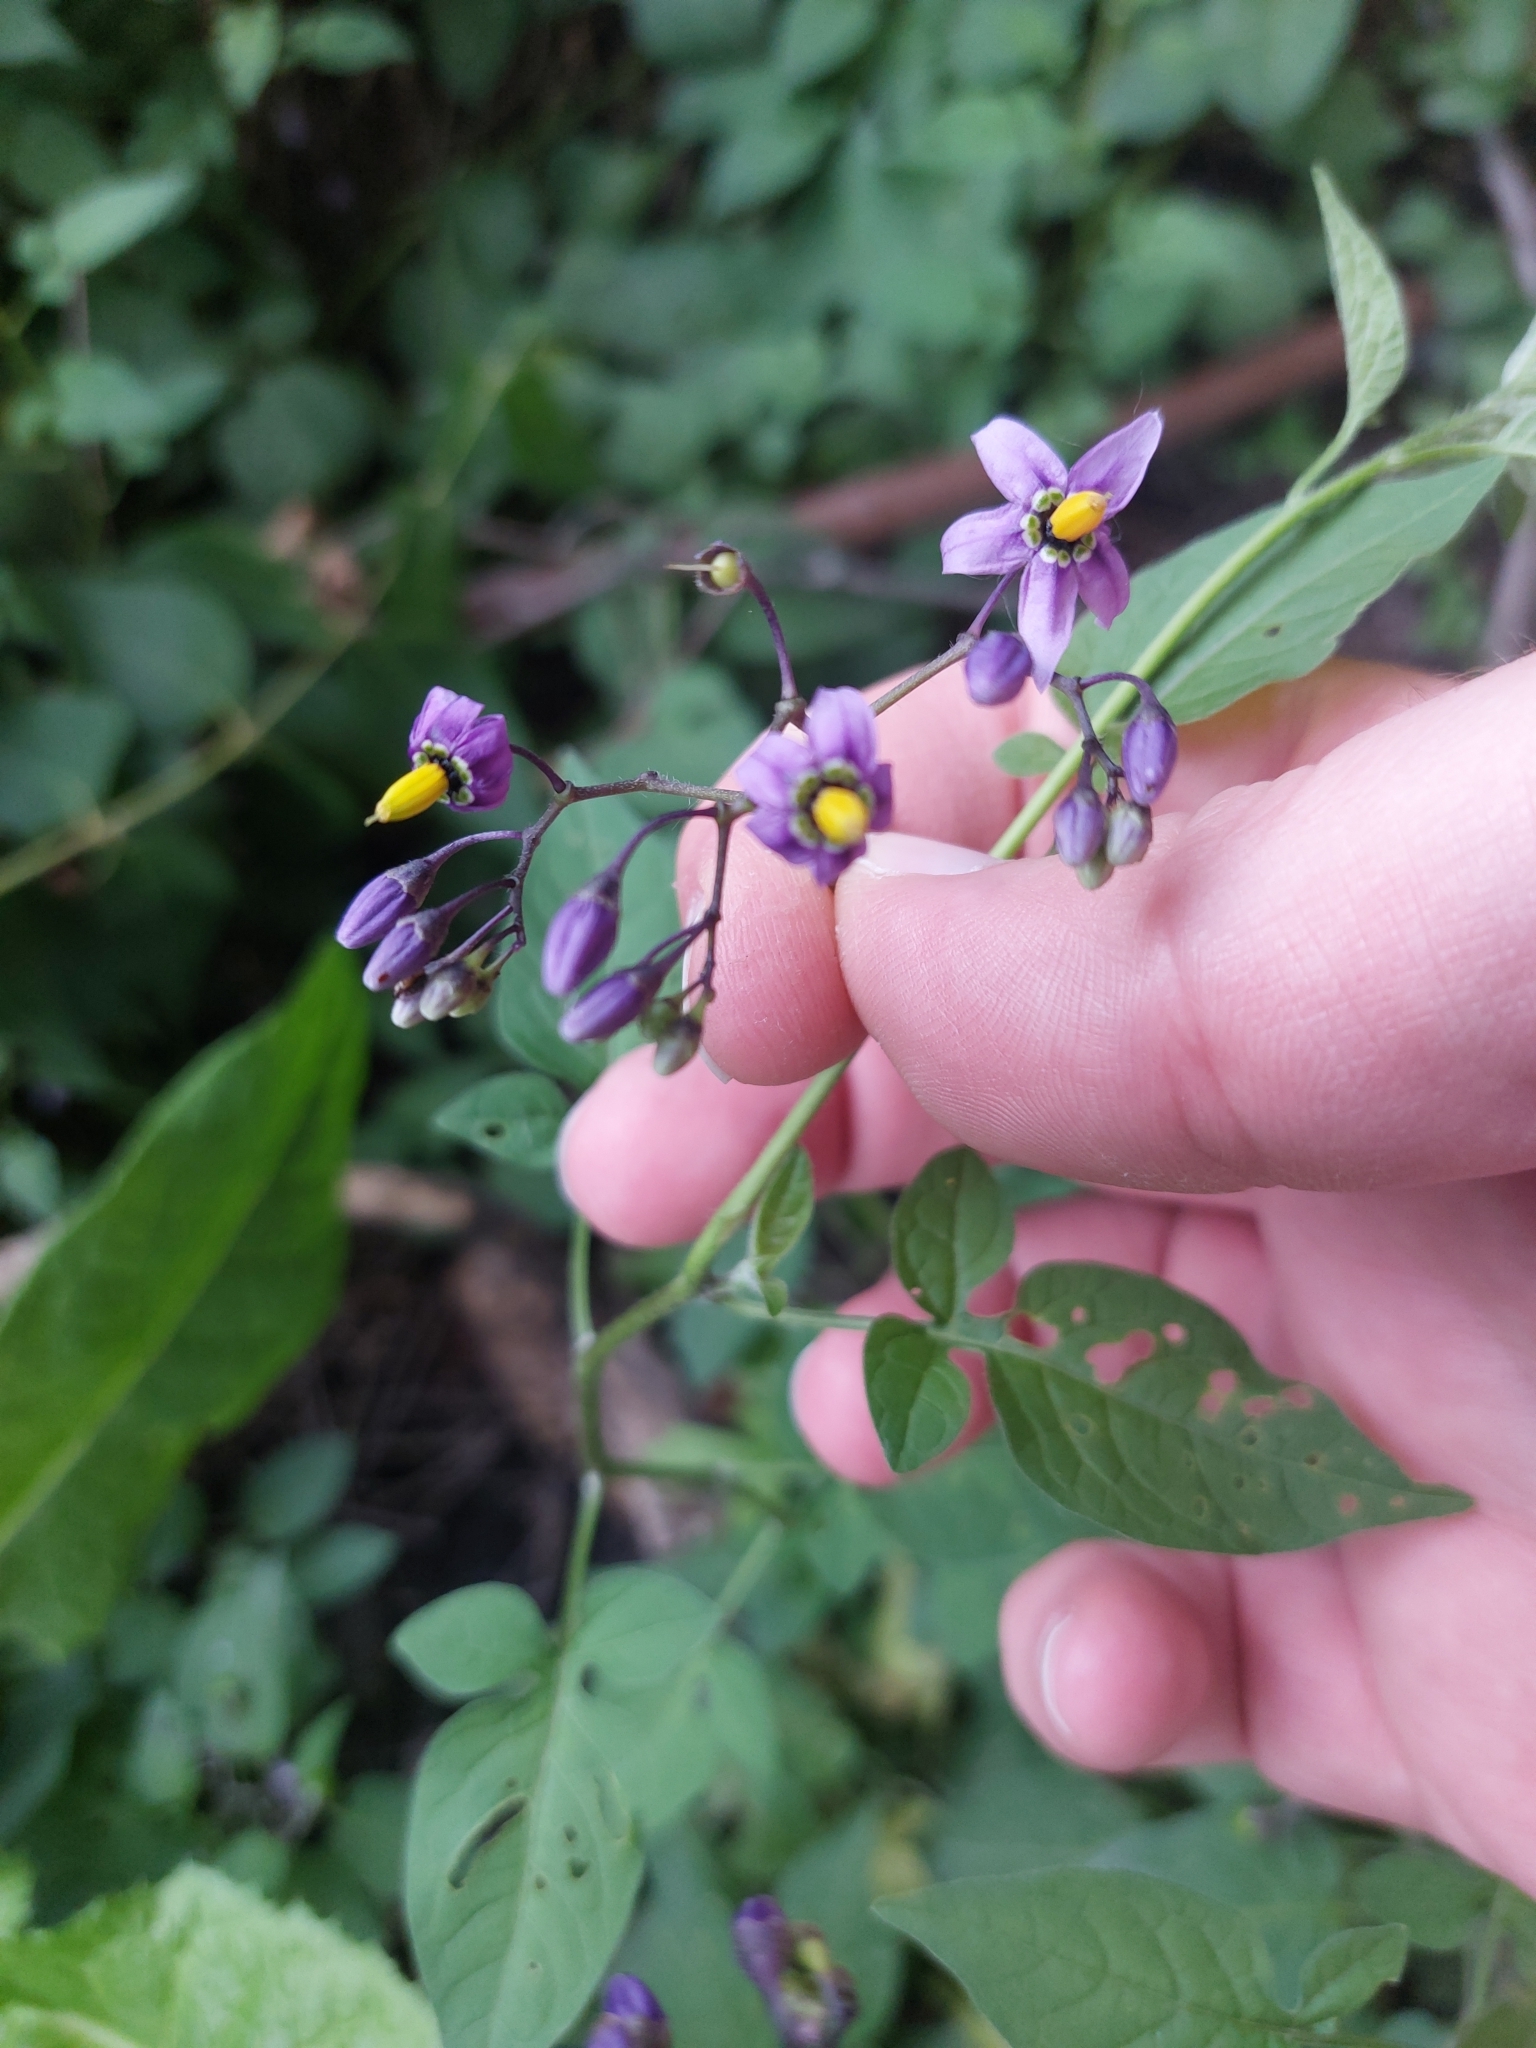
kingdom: Plantae
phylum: Tracheophyta
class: Magnoliopsida
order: Solanales
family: Solanaceae
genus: Solanum
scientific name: Solanum dulcamara
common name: Climbing nightshade
